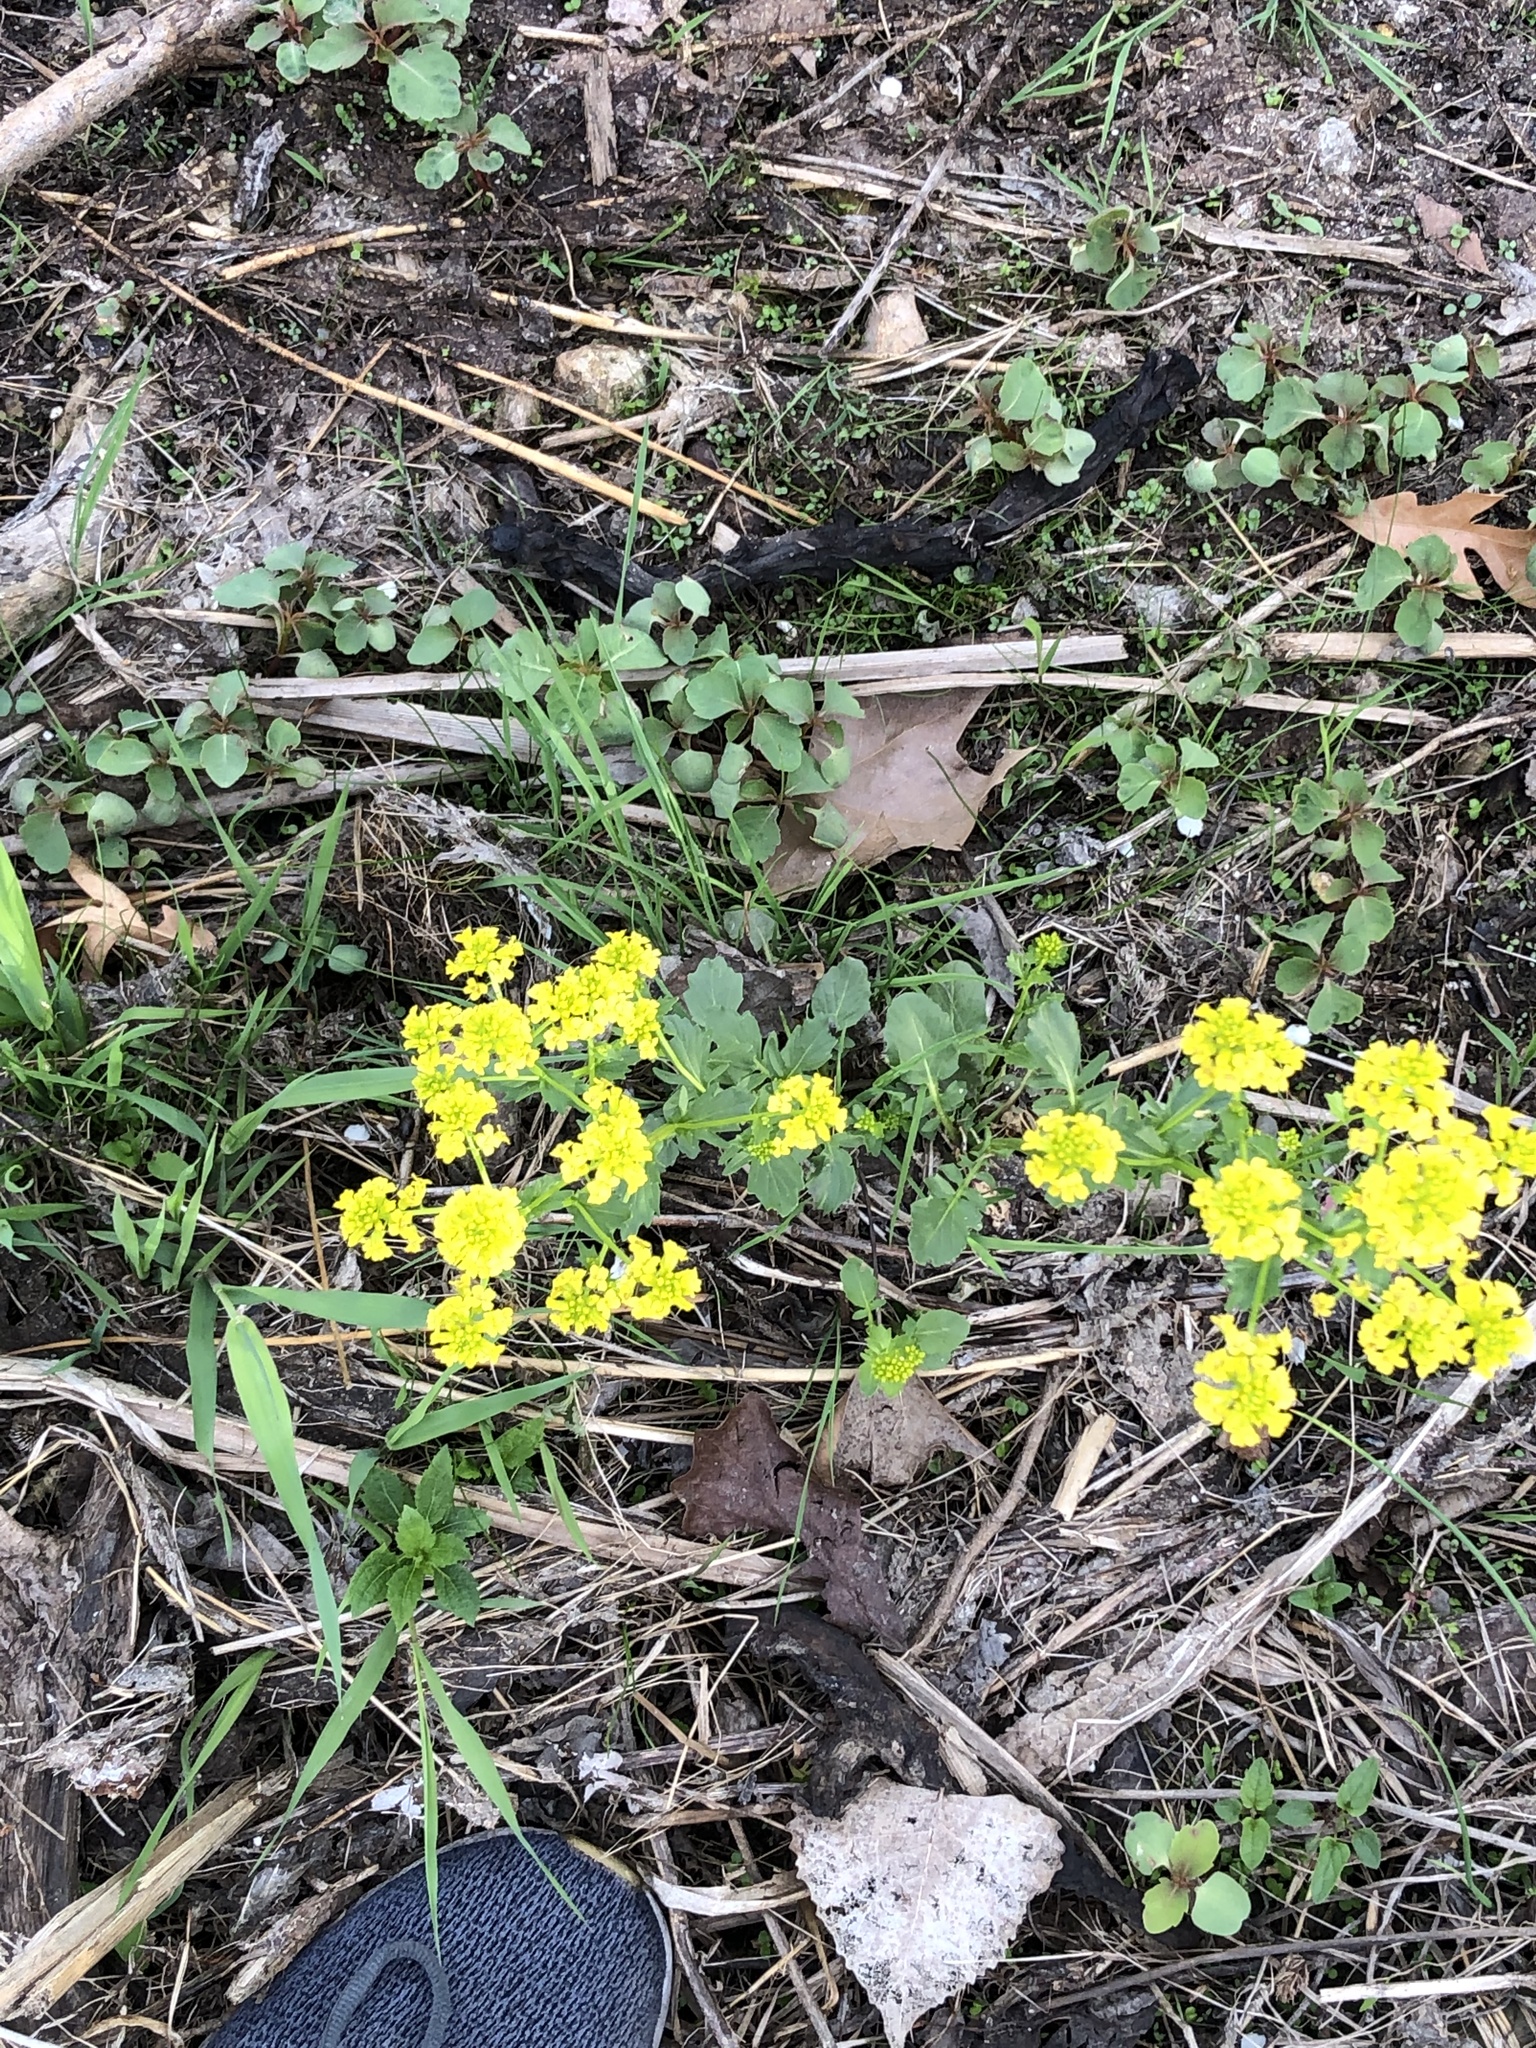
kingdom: Plantae
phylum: Tracheophyta
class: Magnoliopsida
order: Brassicales
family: Brassicaceae
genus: Barbarea
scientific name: Barbarea vulgaris
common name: Cressy-greens
